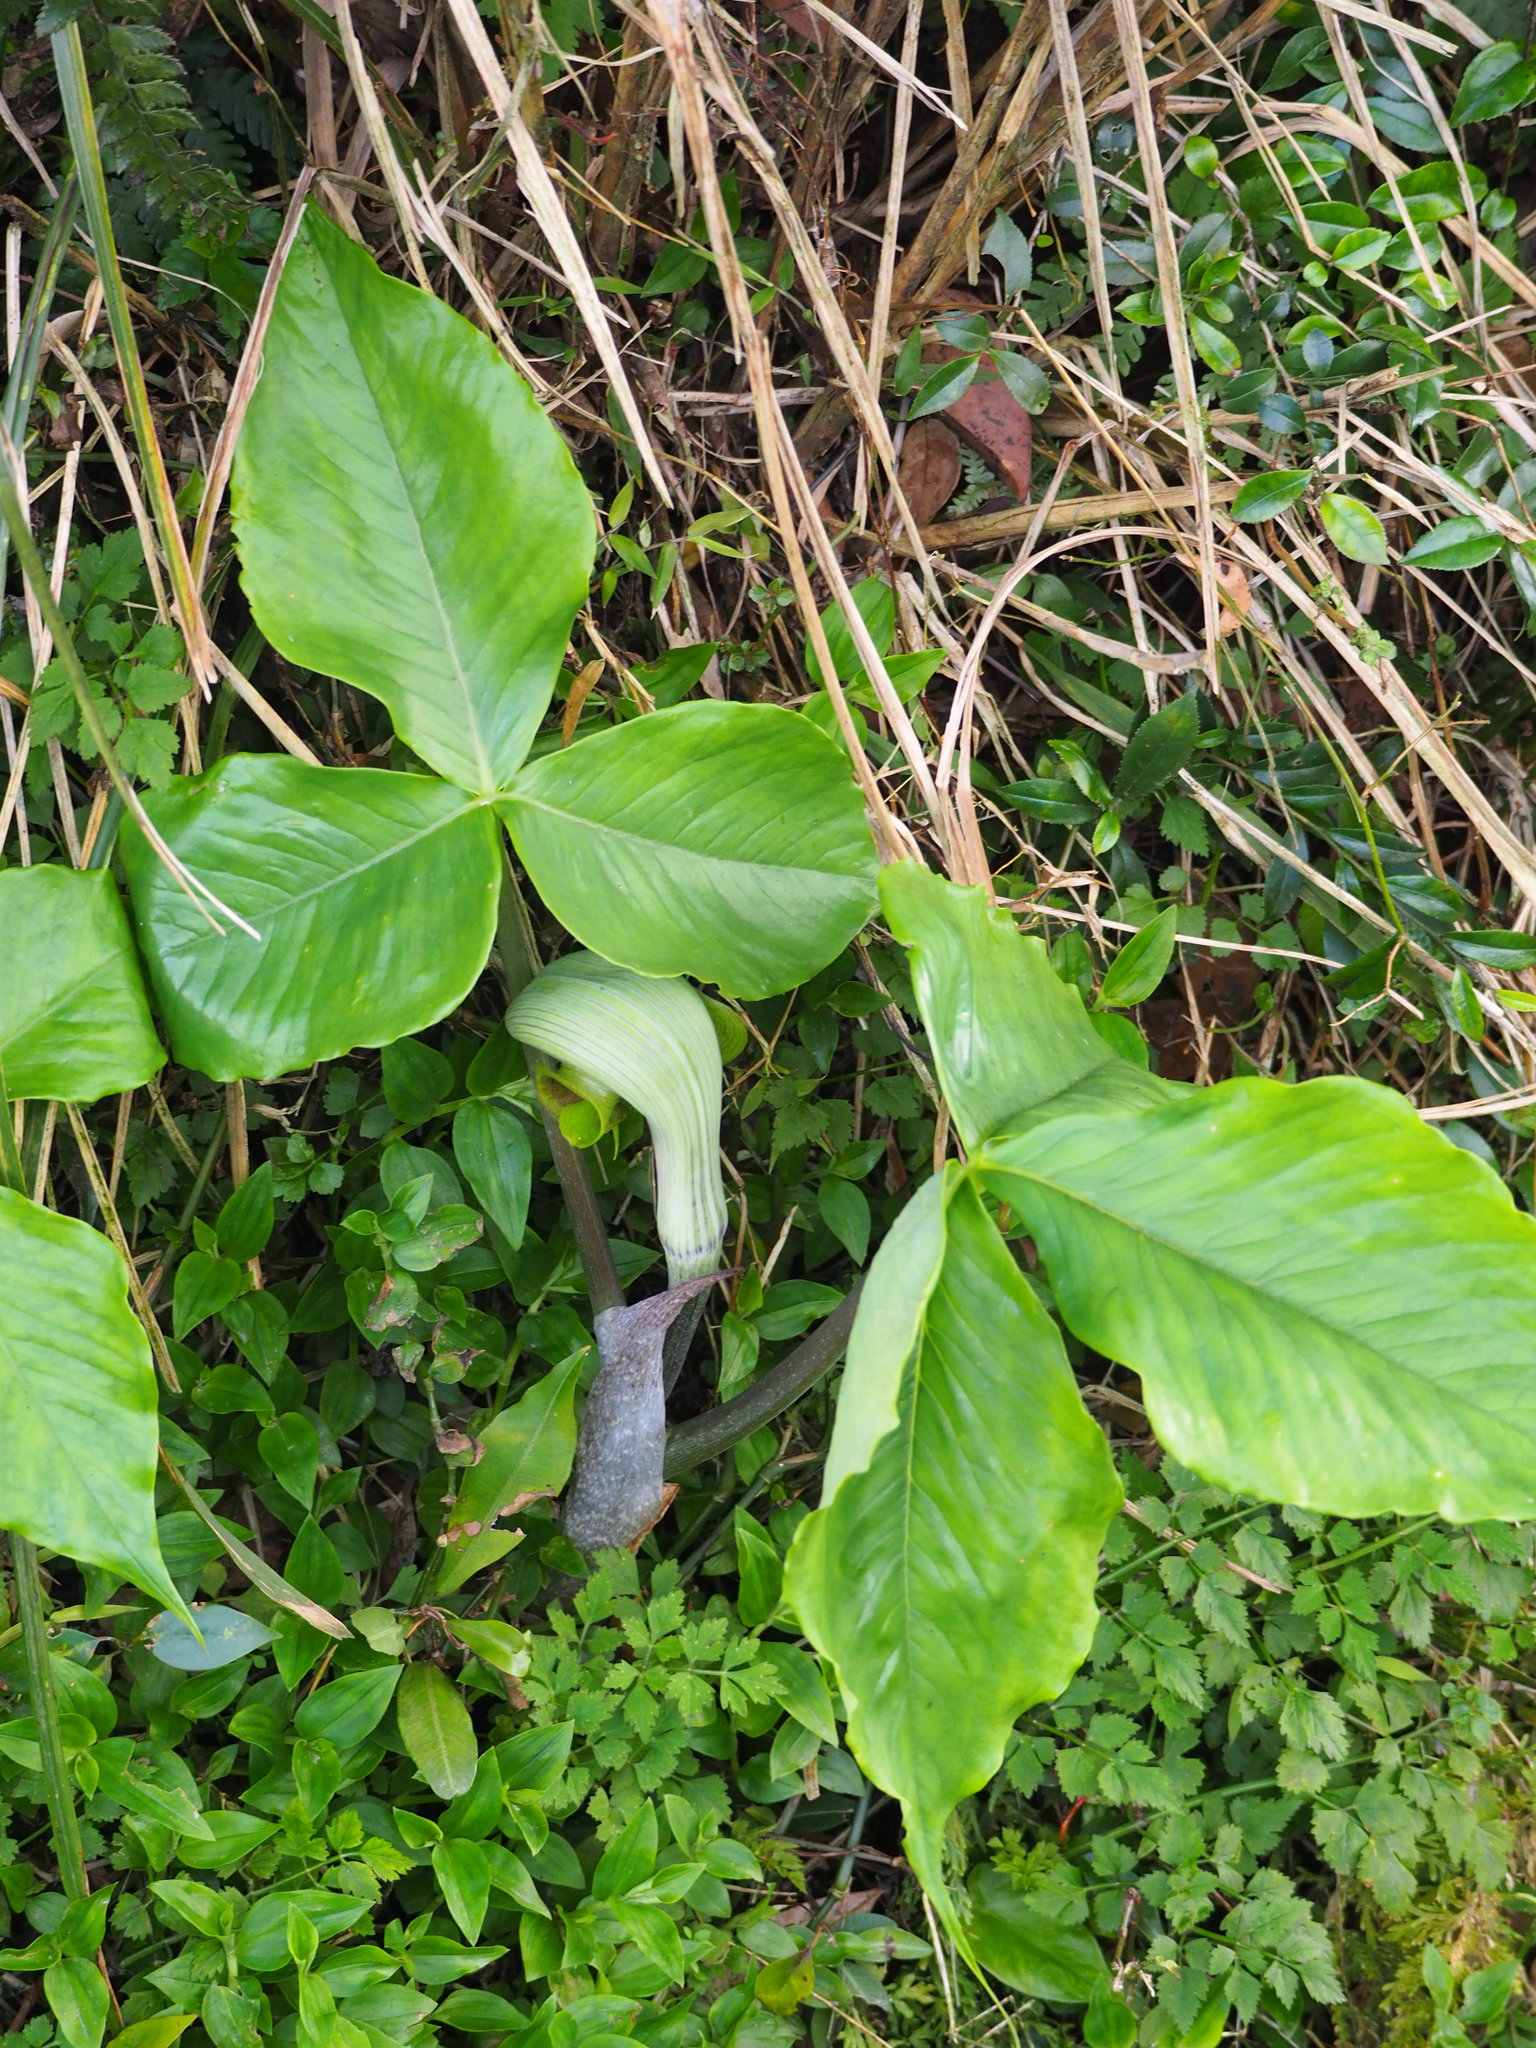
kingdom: Plantae
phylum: Tracheophyta
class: Liliopsida
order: Alismatales
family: Araceae
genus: Arisaema
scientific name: Arisaema ringens
